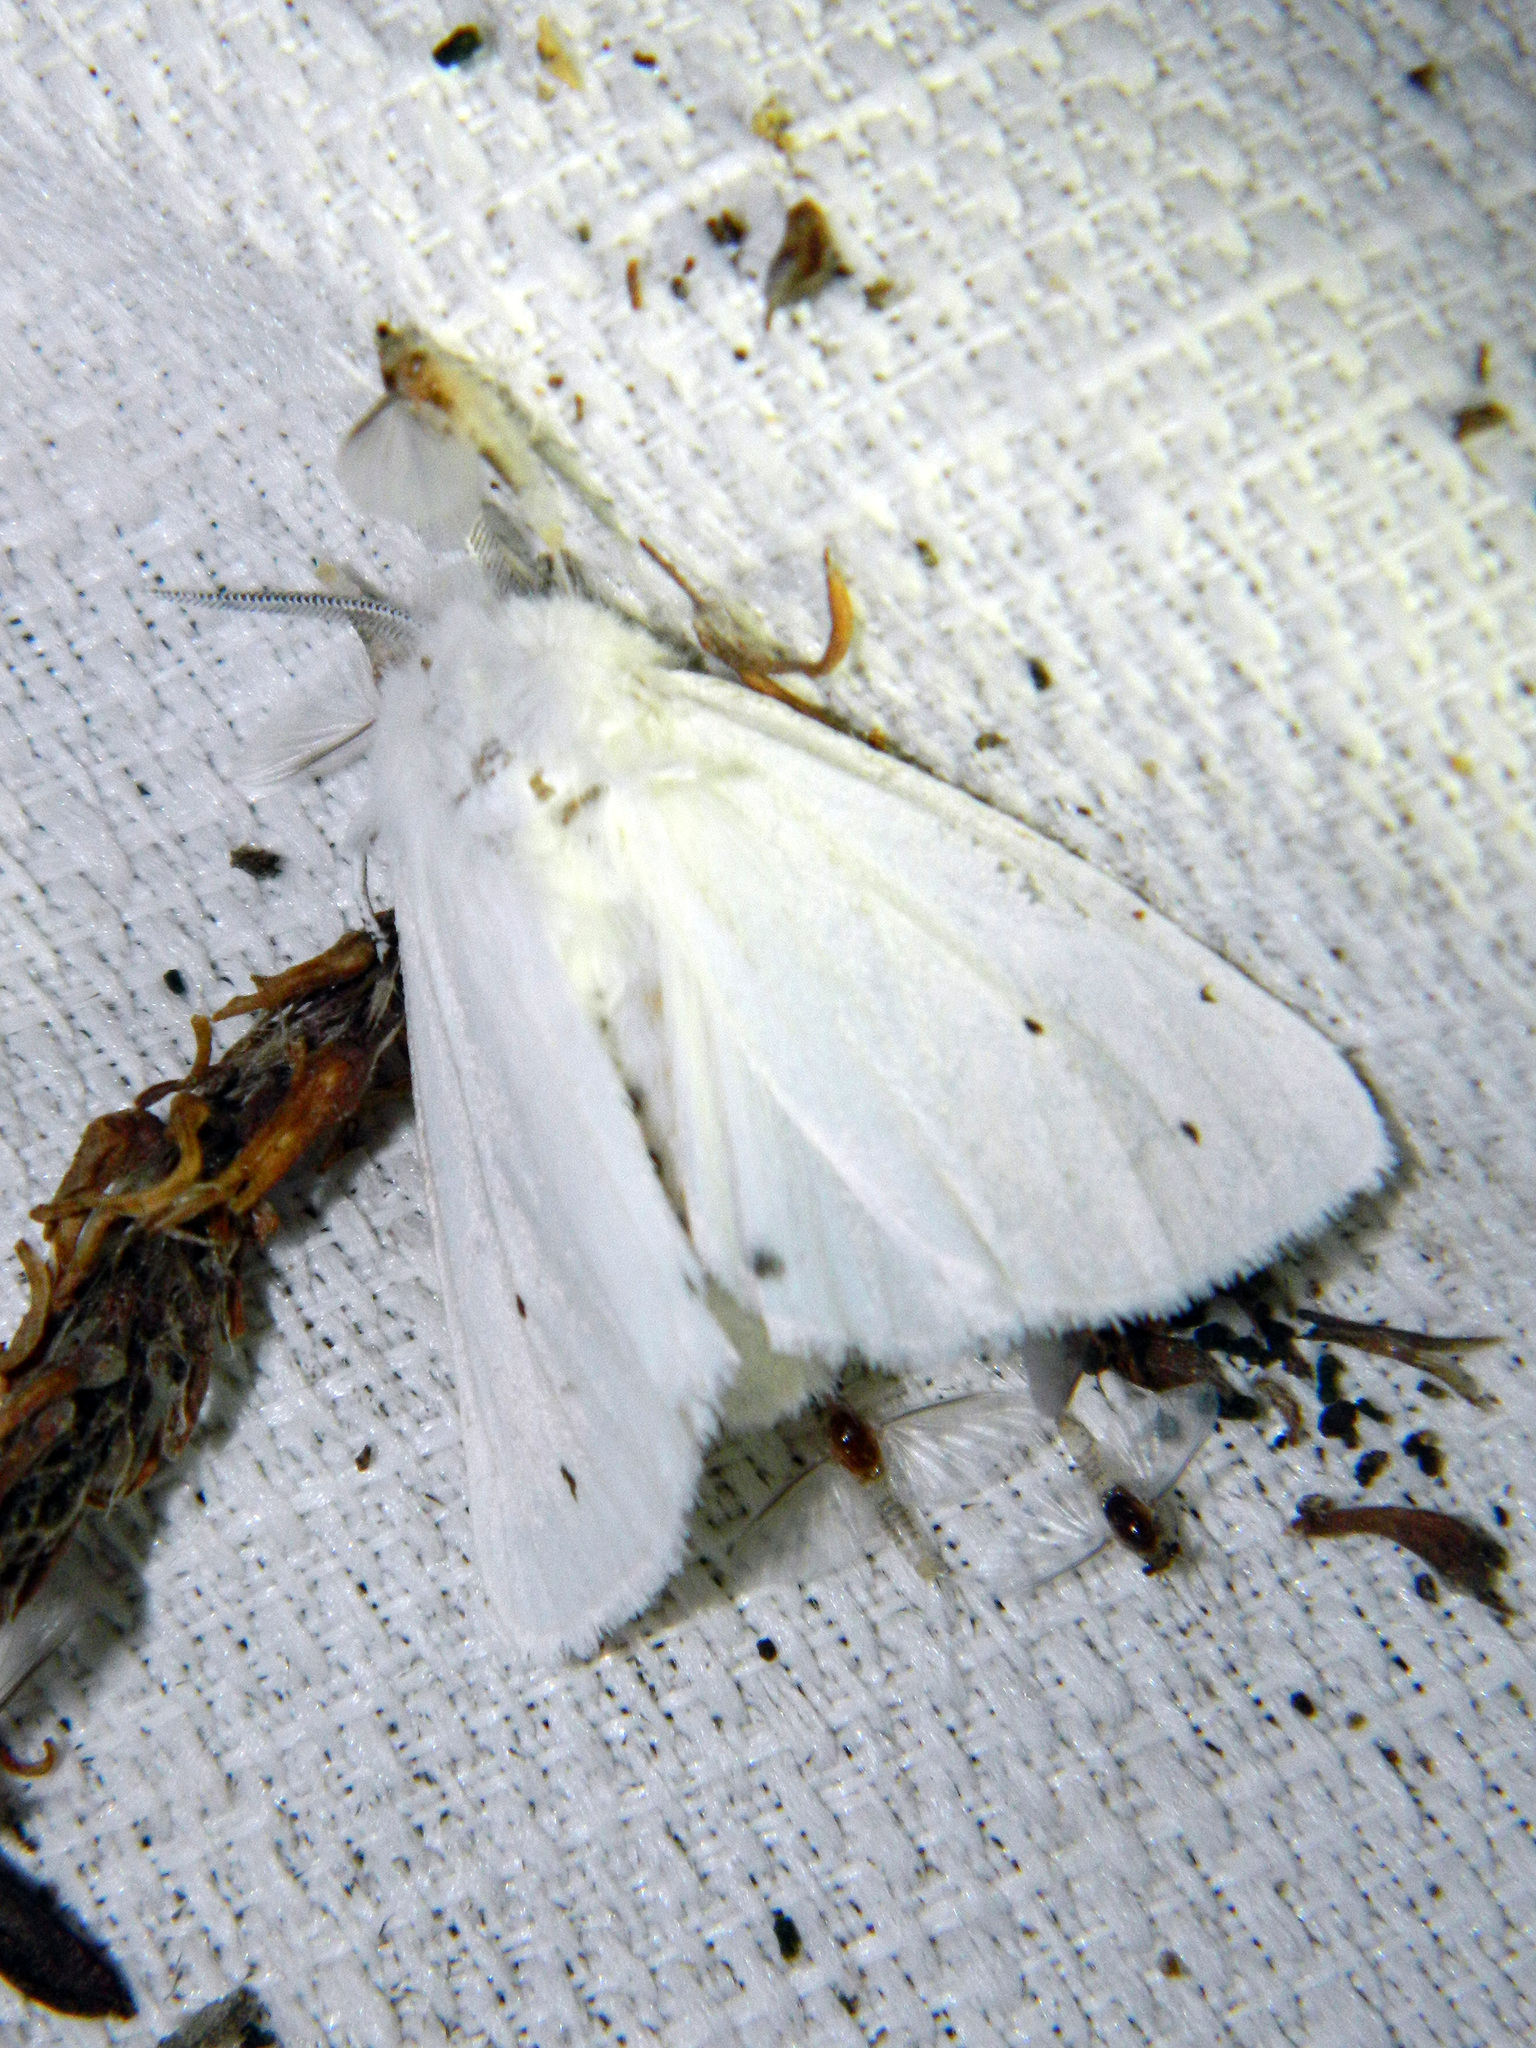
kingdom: Animalia
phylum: Arthropoda
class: Insecta
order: Lepidoptera
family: Erebidae
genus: Spilosoma
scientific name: Spilosoma virginica
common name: Virginia tiger moth
